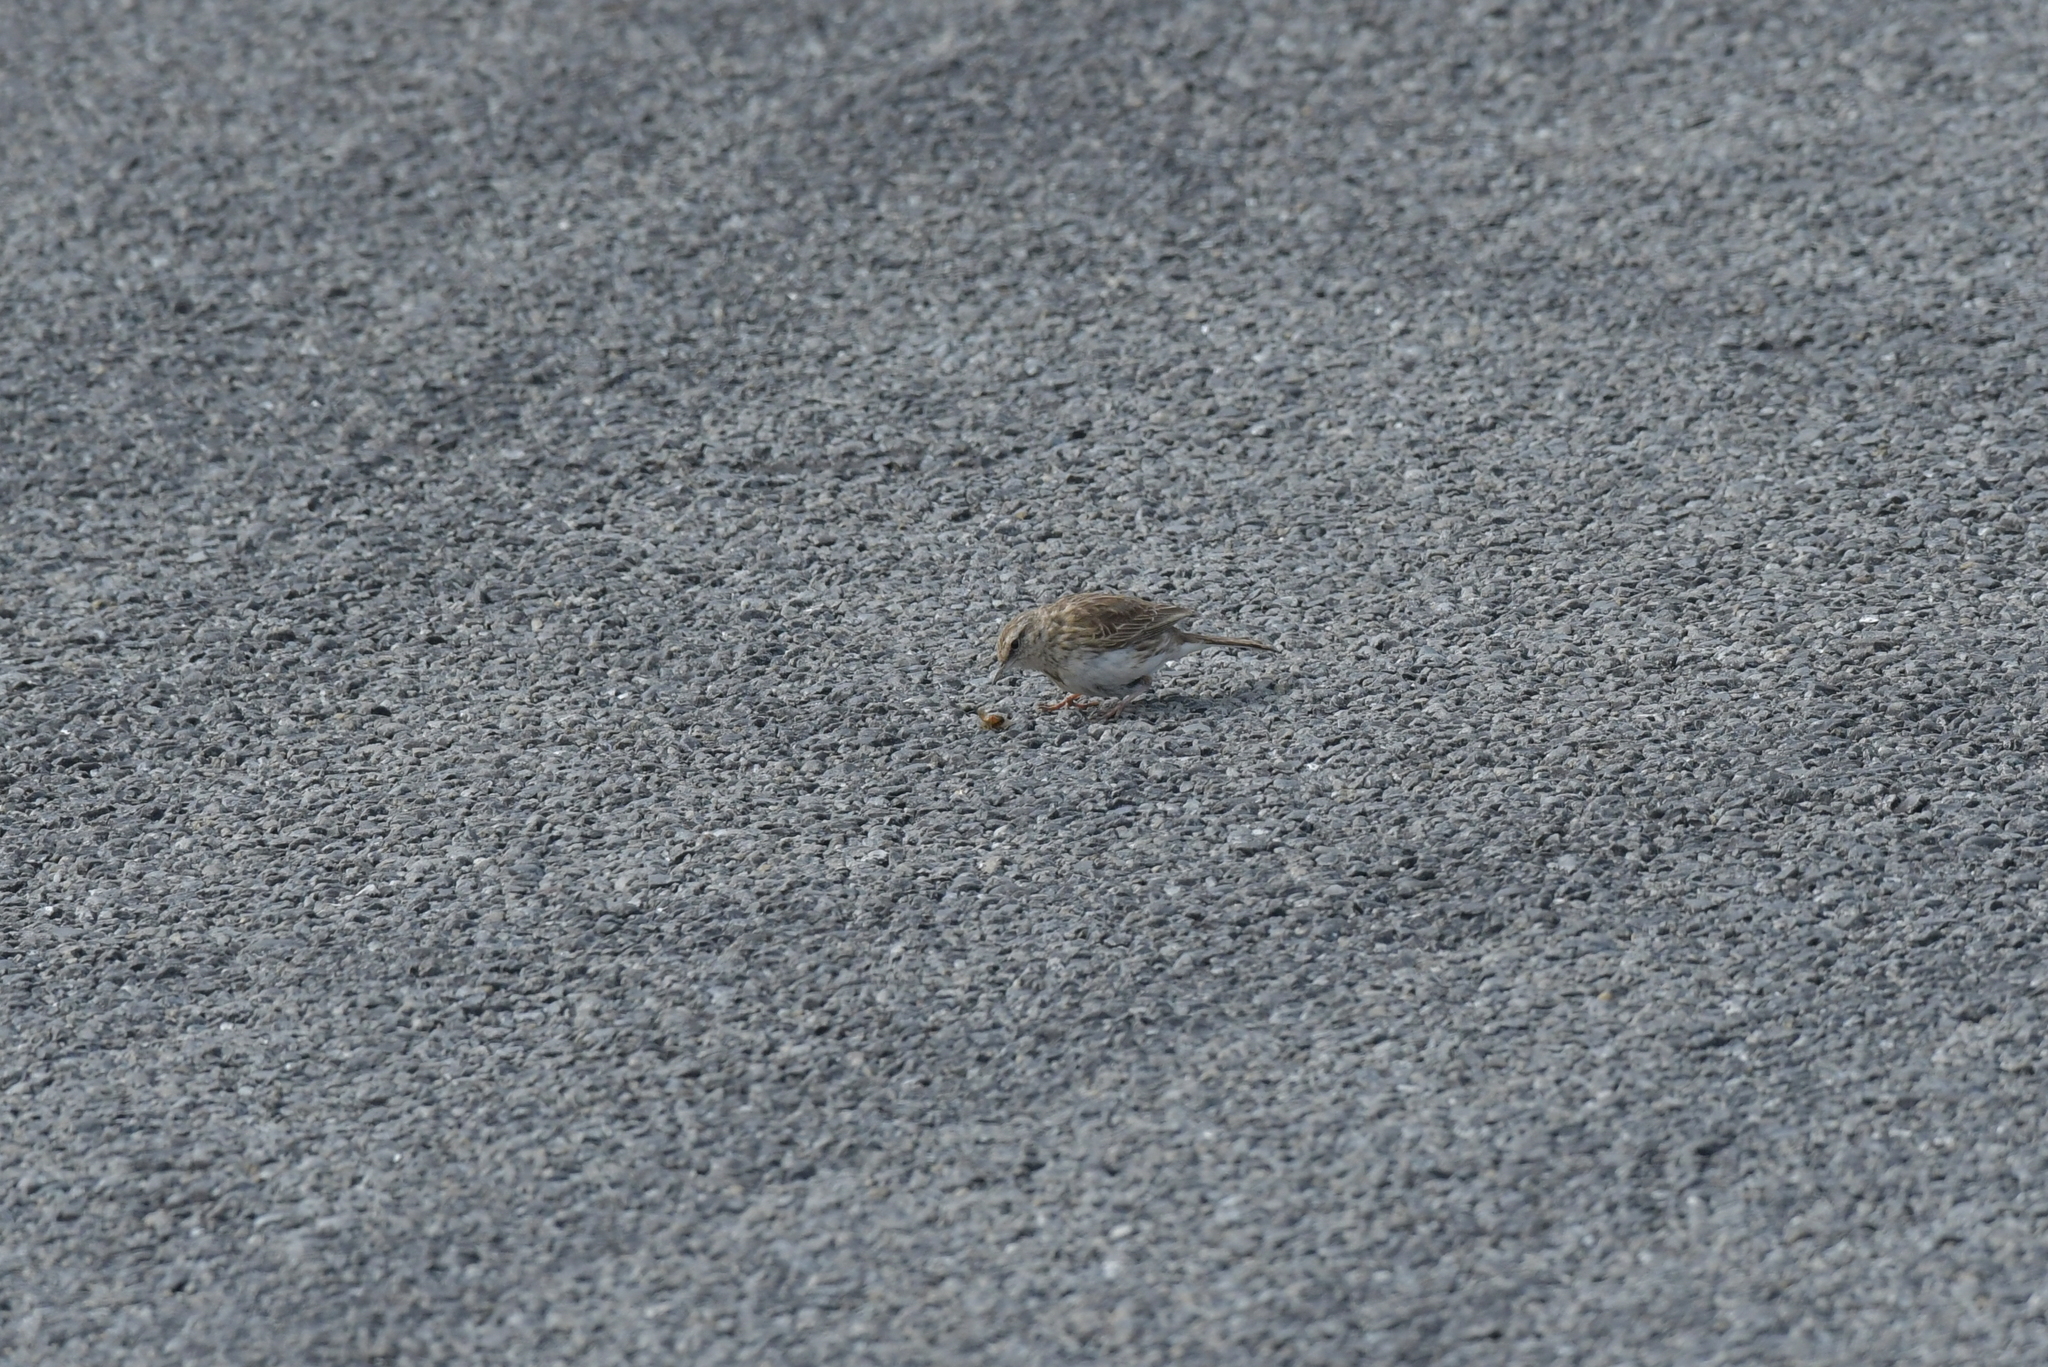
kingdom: Animalia
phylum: Chordata
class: Aves
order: Passeriformes
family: Motacillidae
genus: Anthus
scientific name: Anthus novaeseelandiae
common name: New zealand pipit
